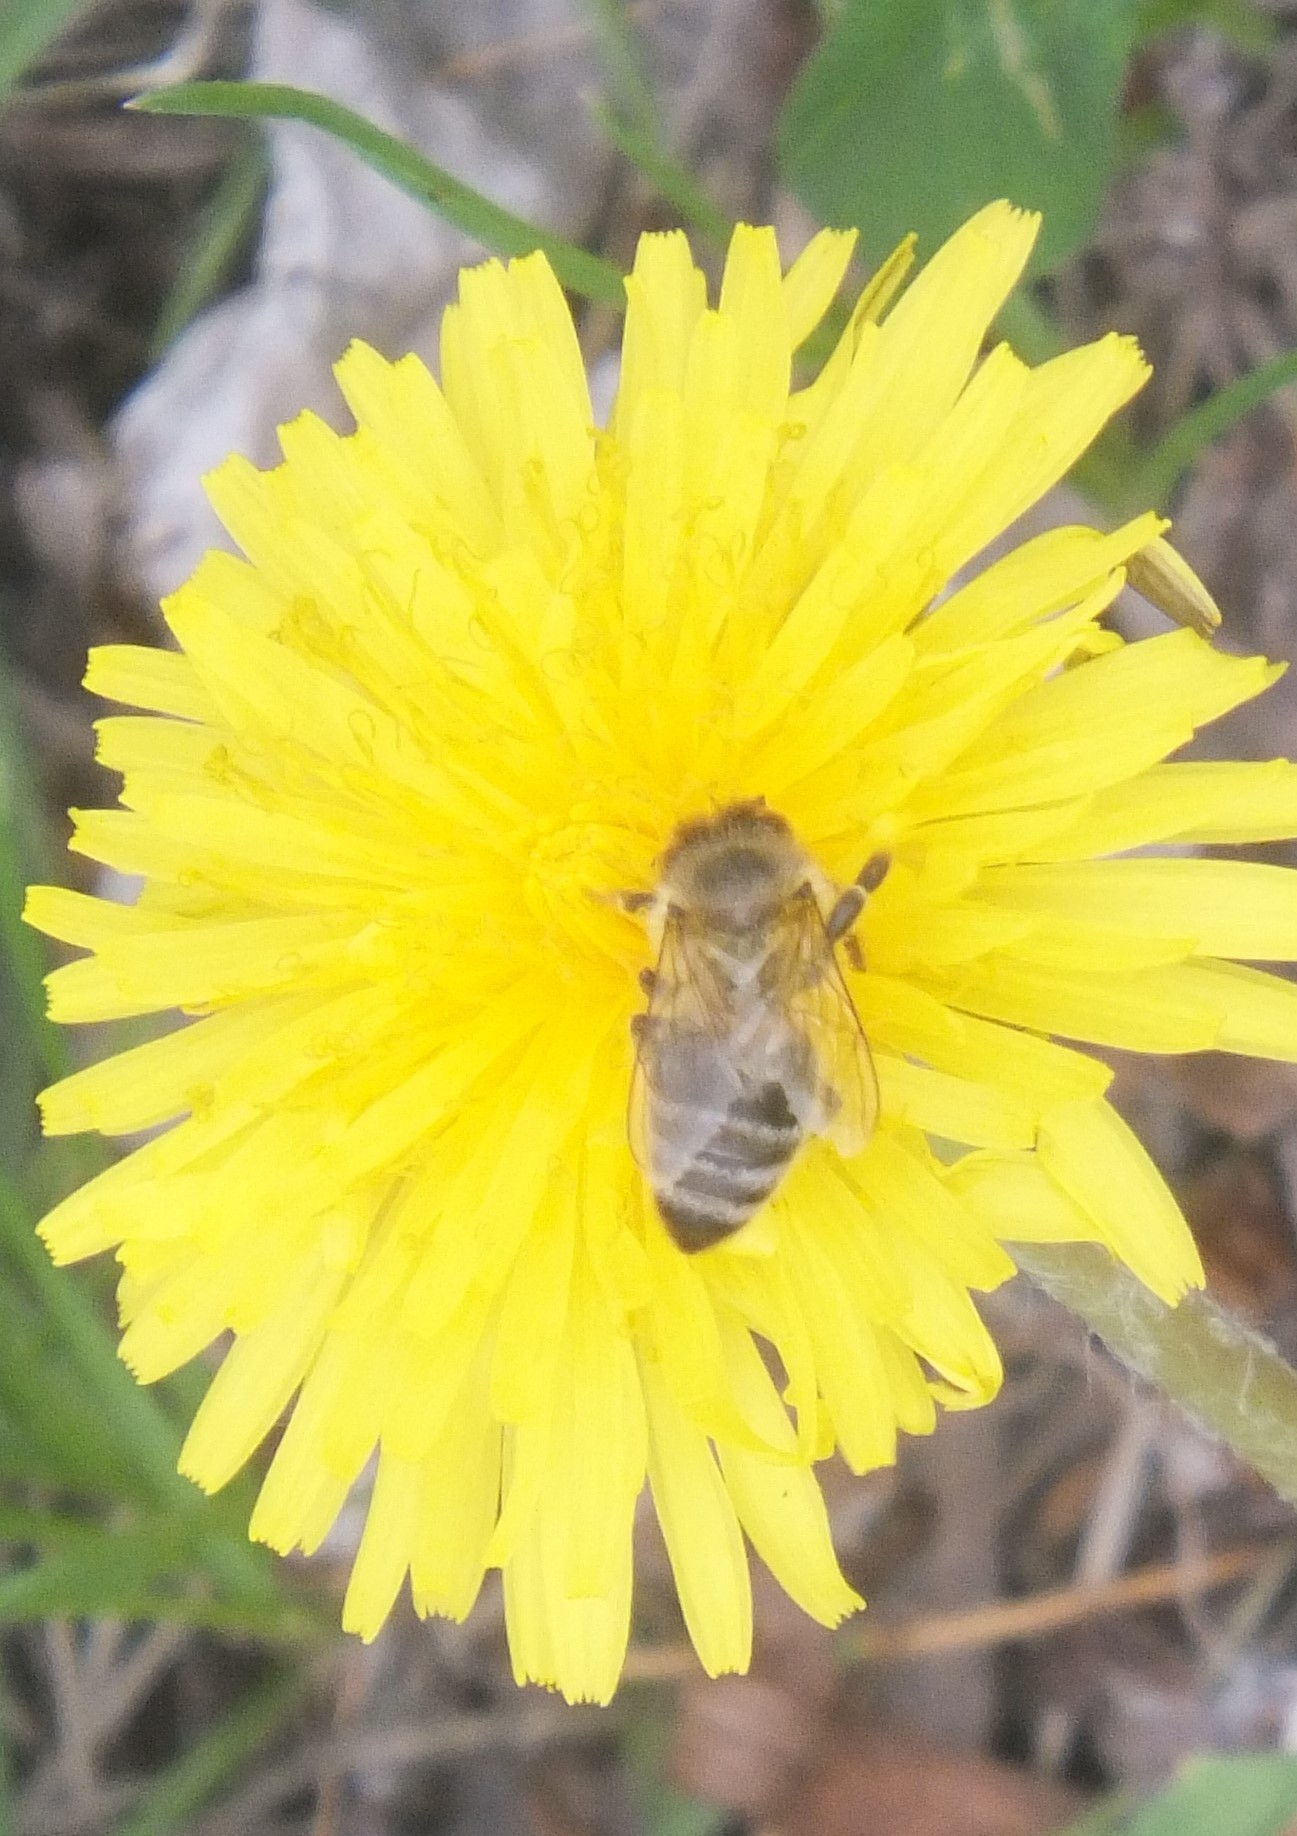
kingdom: Animalia
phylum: Arthropoda
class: Insecta
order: Hymenoptera
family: Apidae
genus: Apis
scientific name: Apis mellifera
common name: Honey bee
